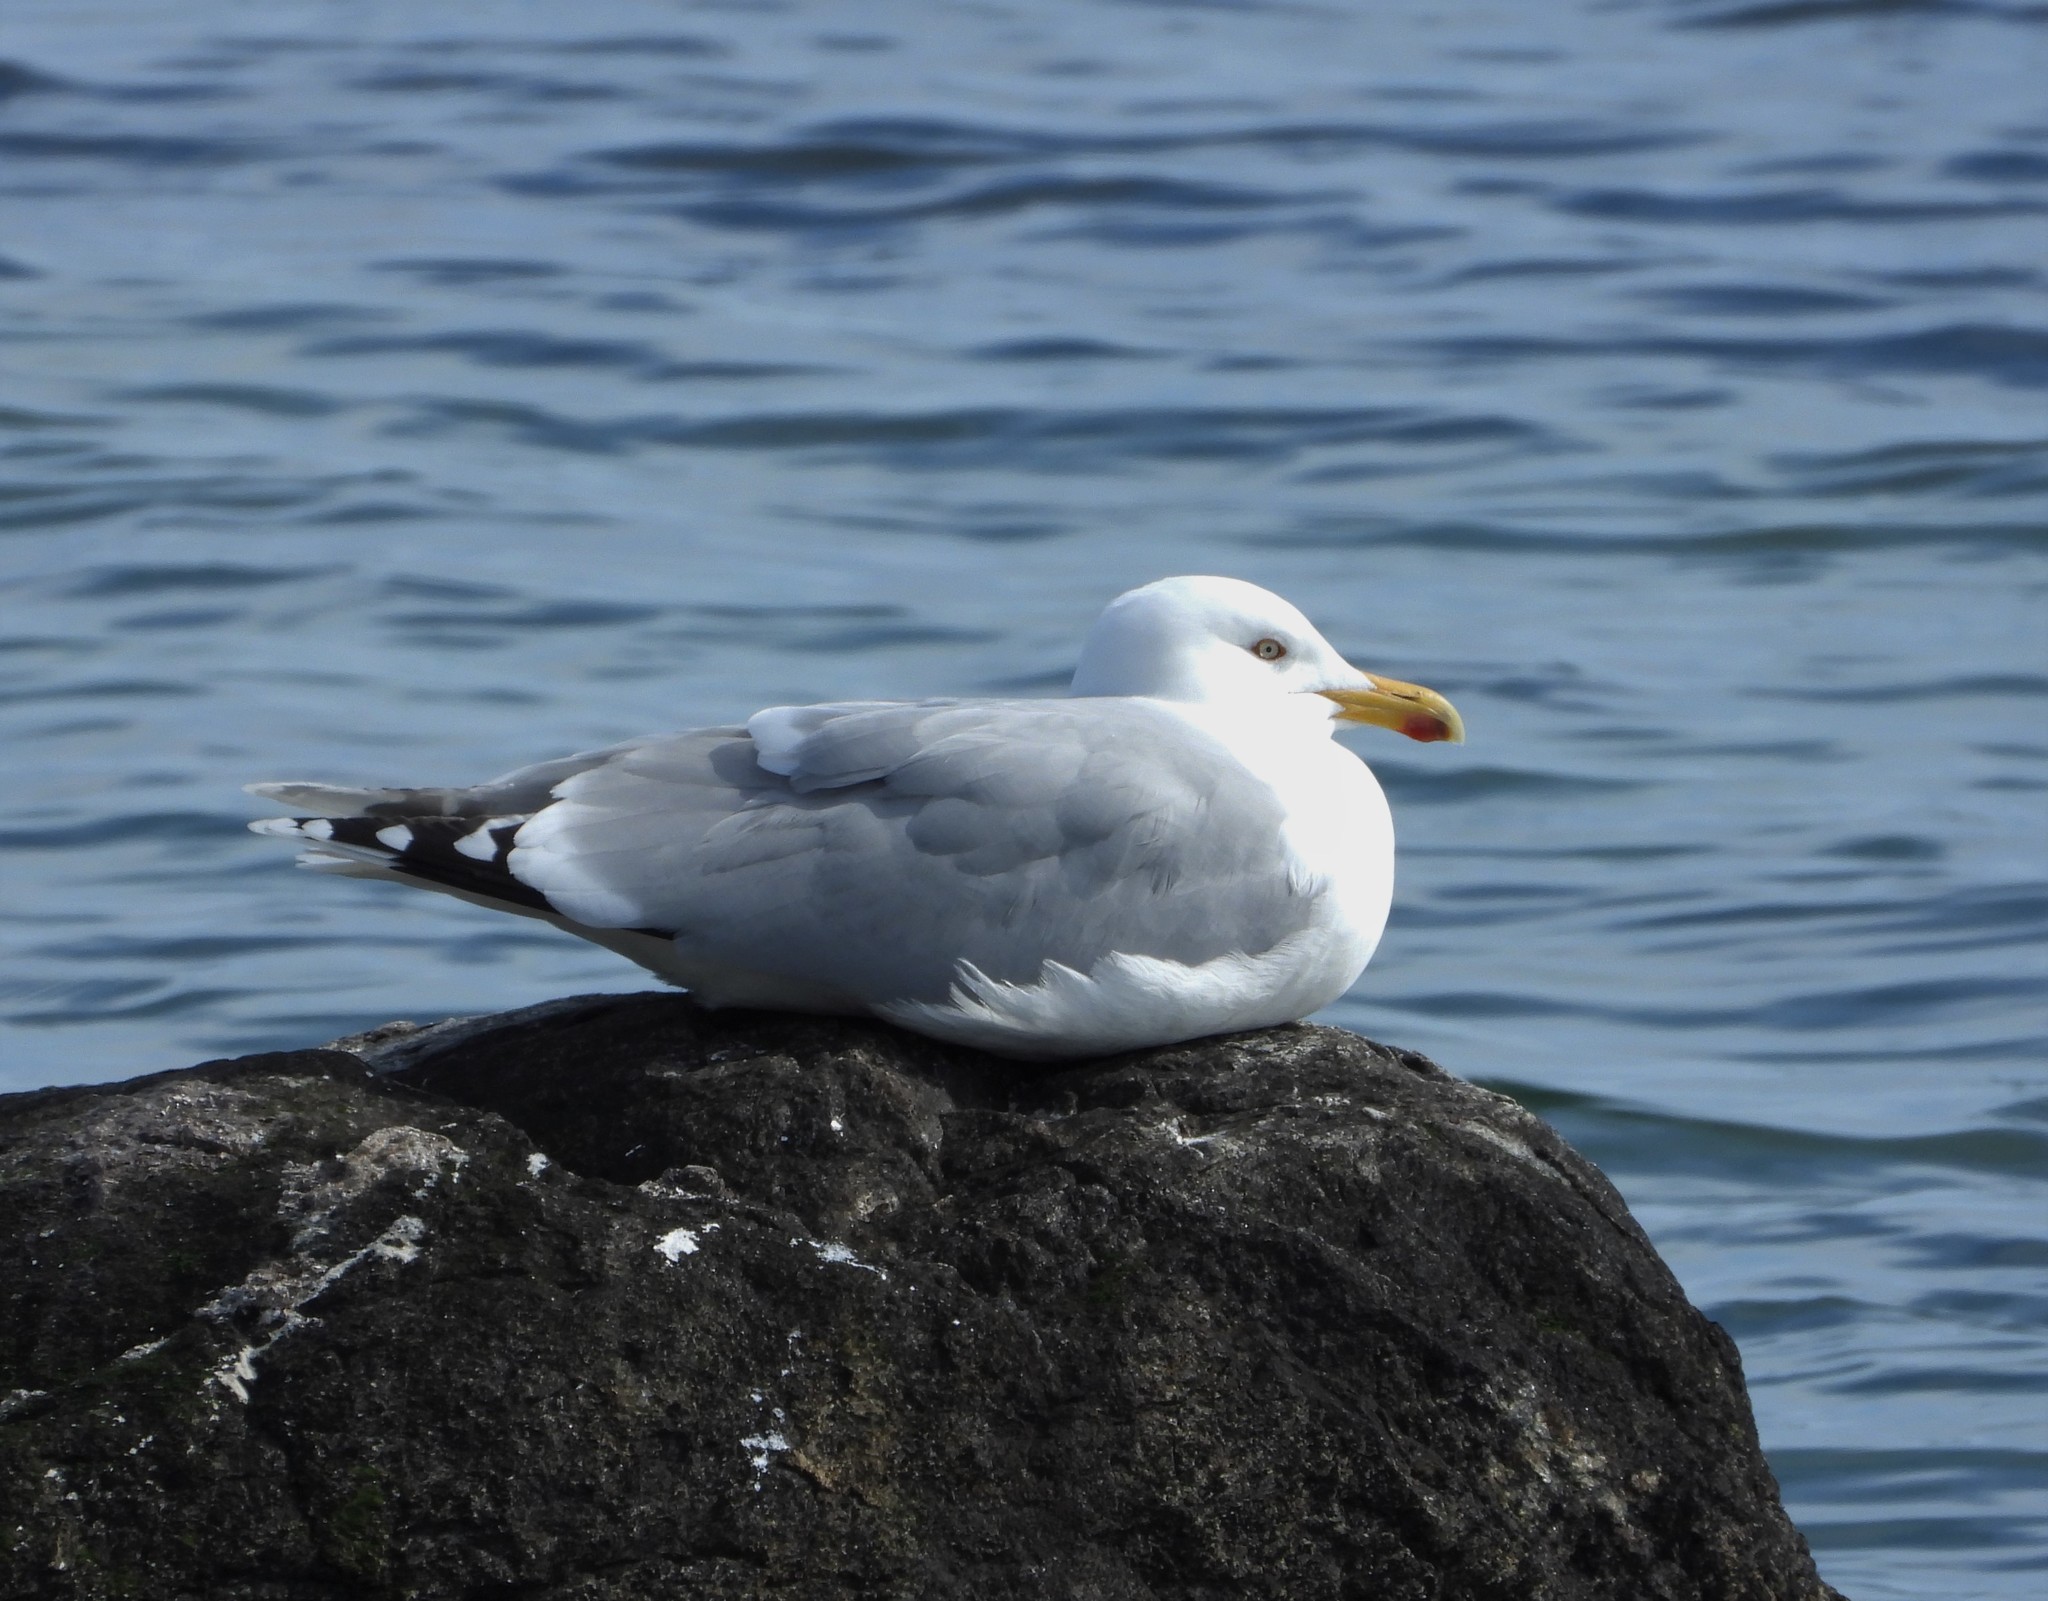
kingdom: Animalia
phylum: Chordata
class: Aves
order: Charadriiformes
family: Laridae
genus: Larus
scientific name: Larus argentatus
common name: Herring gull
